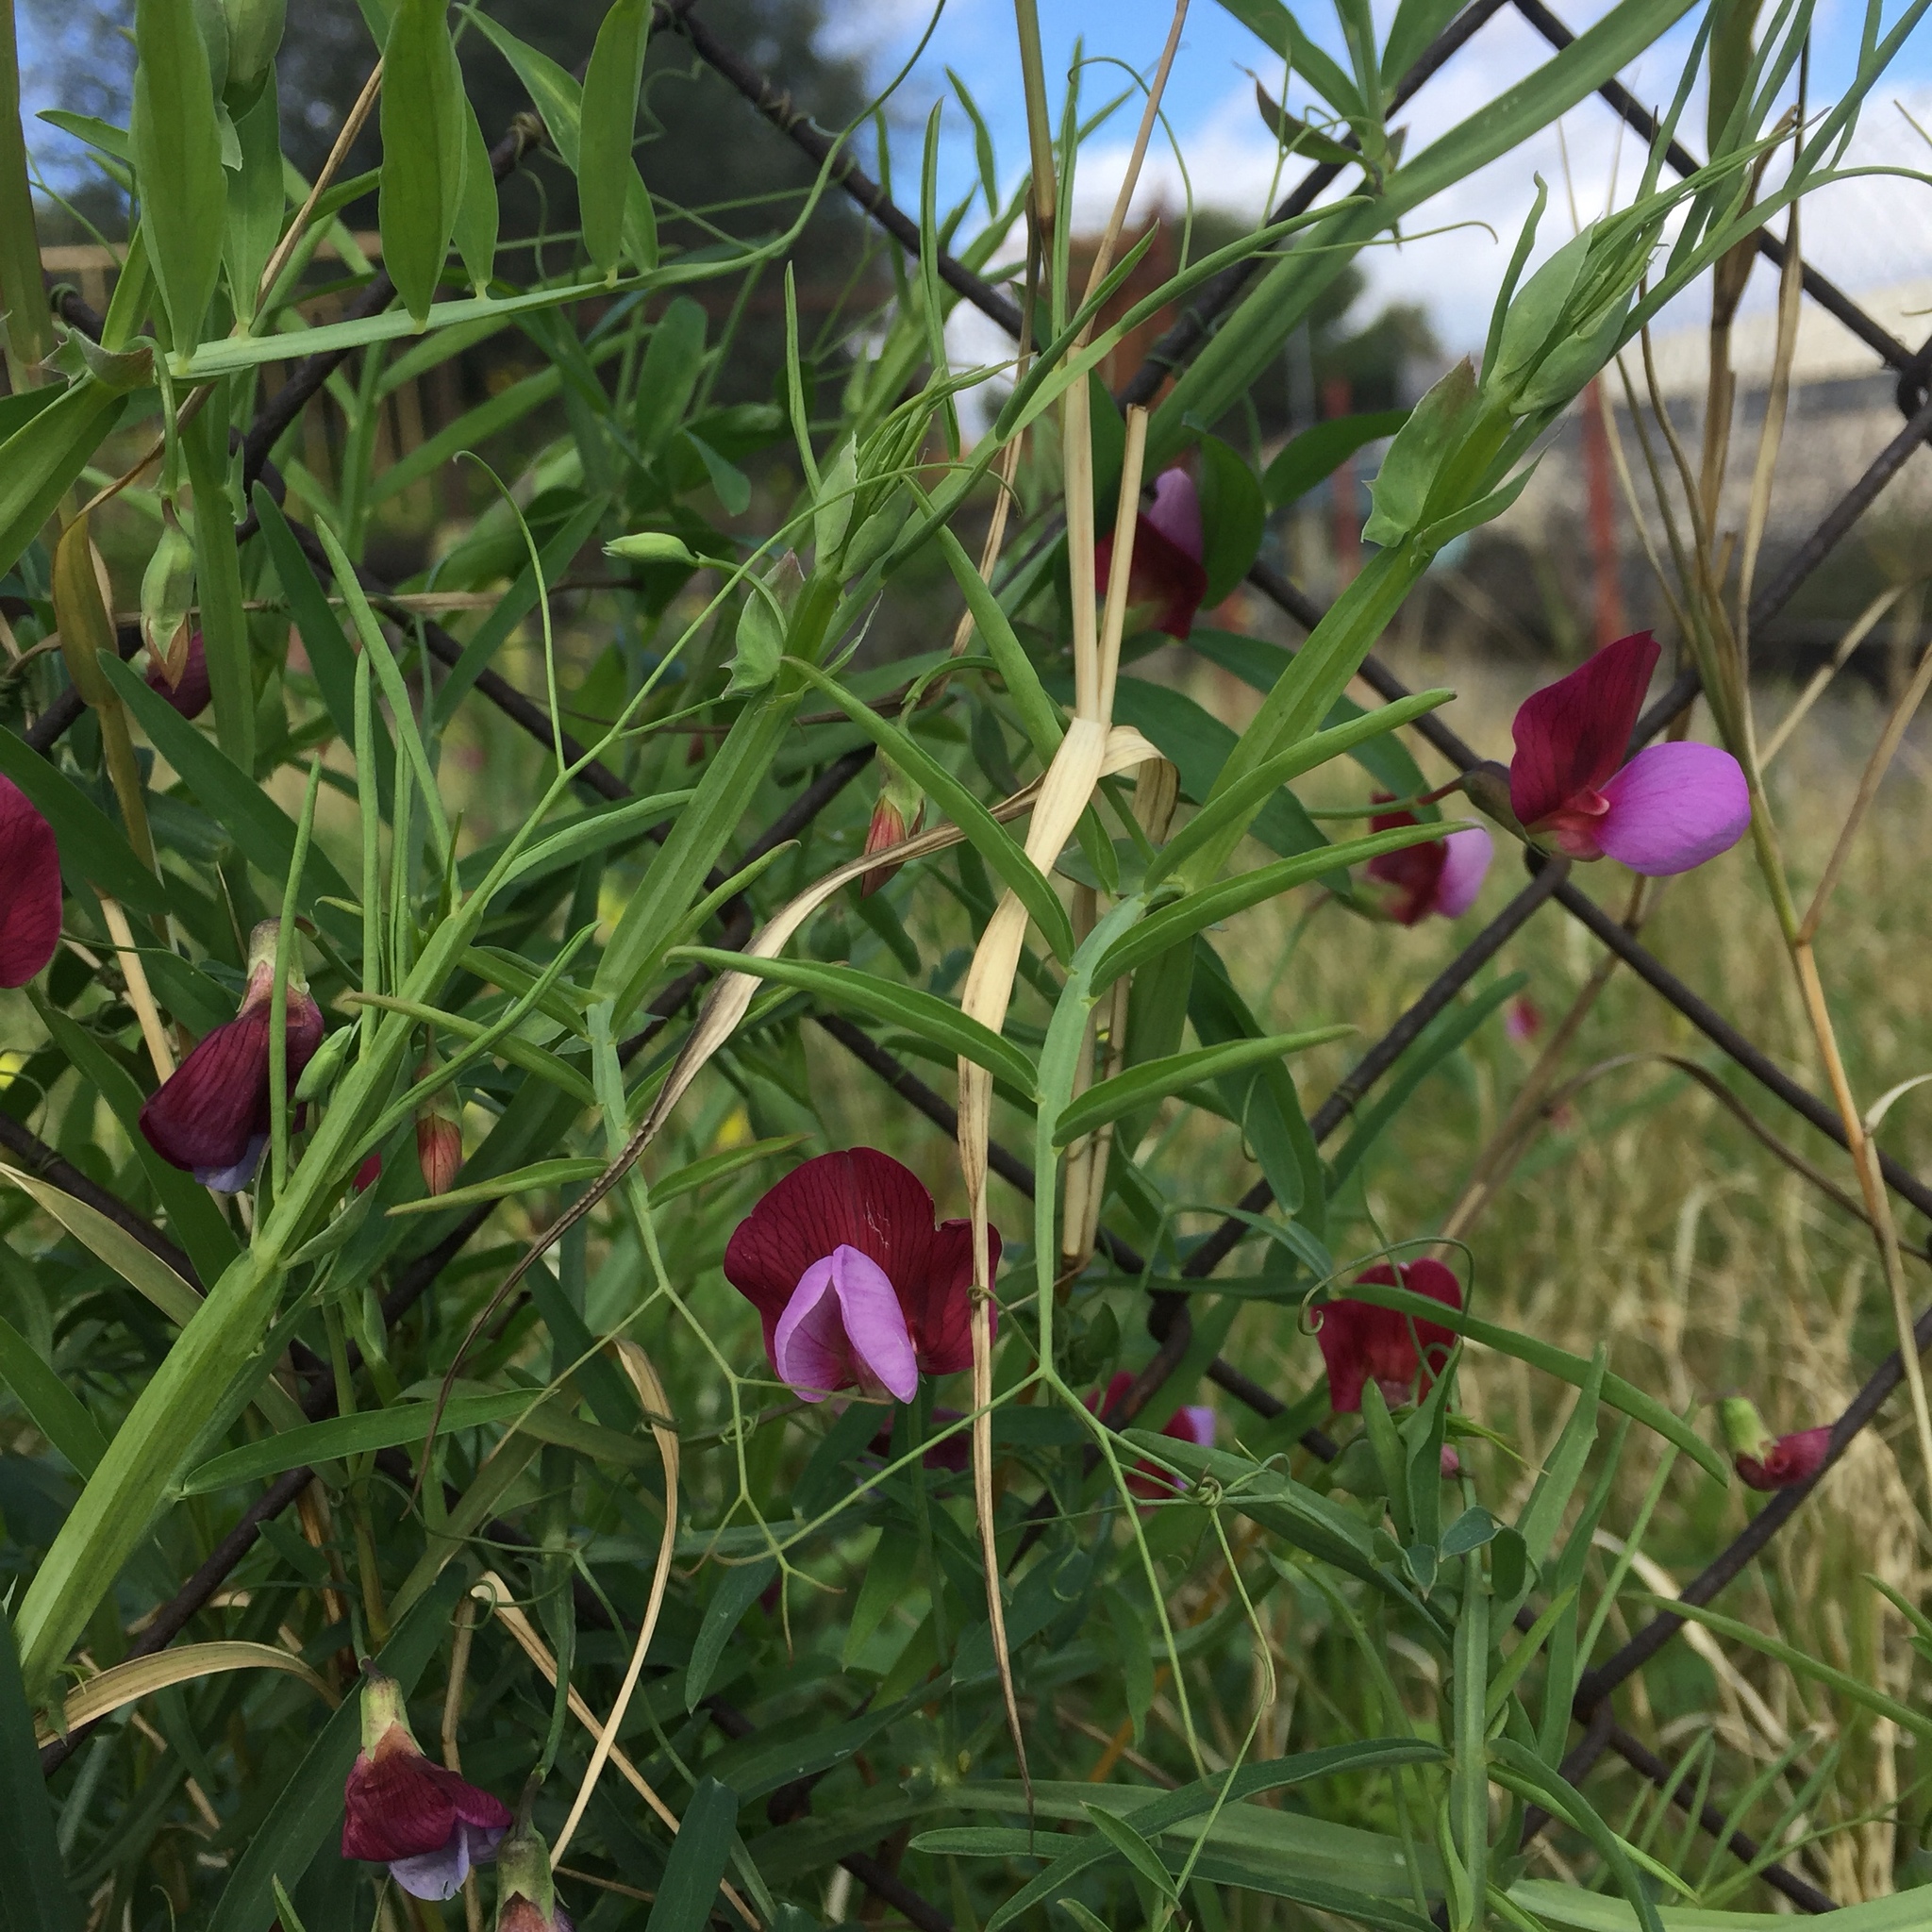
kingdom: Plantae
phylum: Tracheophyta
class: Magnoliopsida
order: Fabales
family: Fabaceae
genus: Lathyrus
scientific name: Lathyrus clymenum
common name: Spanish vetchling
